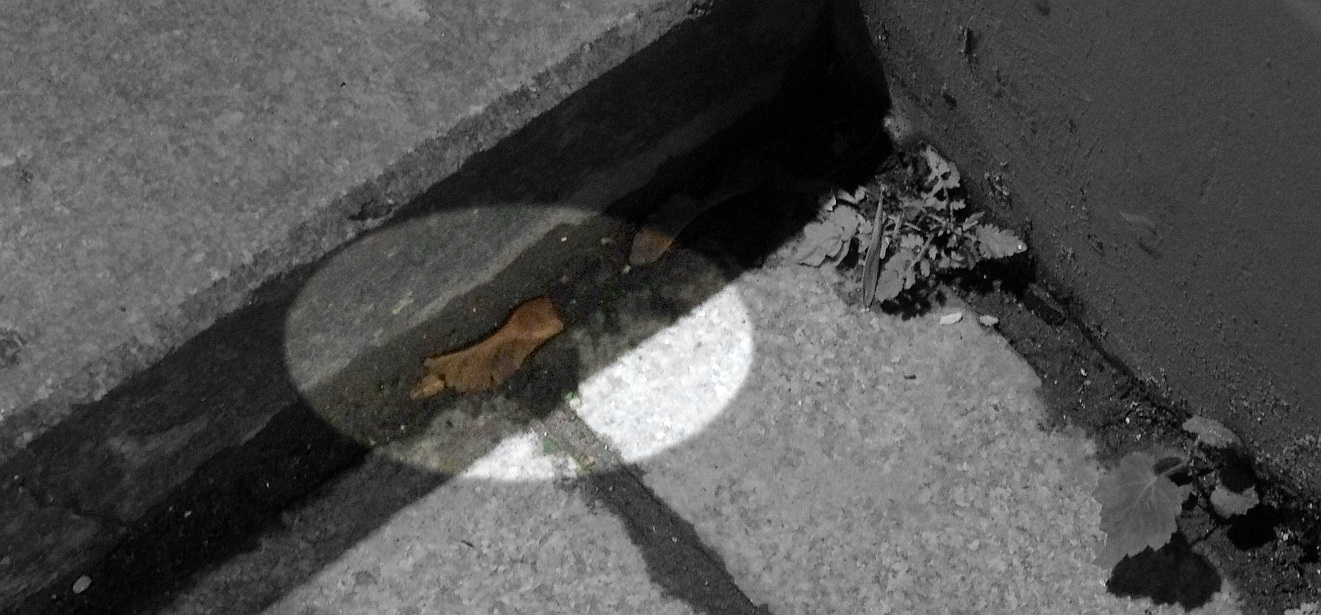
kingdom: Plantae
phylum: Tracheophyta
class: Magnoliopsida
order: Sapindales
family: Sapindaceae
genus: Acer
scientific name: Acer platanoides
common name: Norway maple
